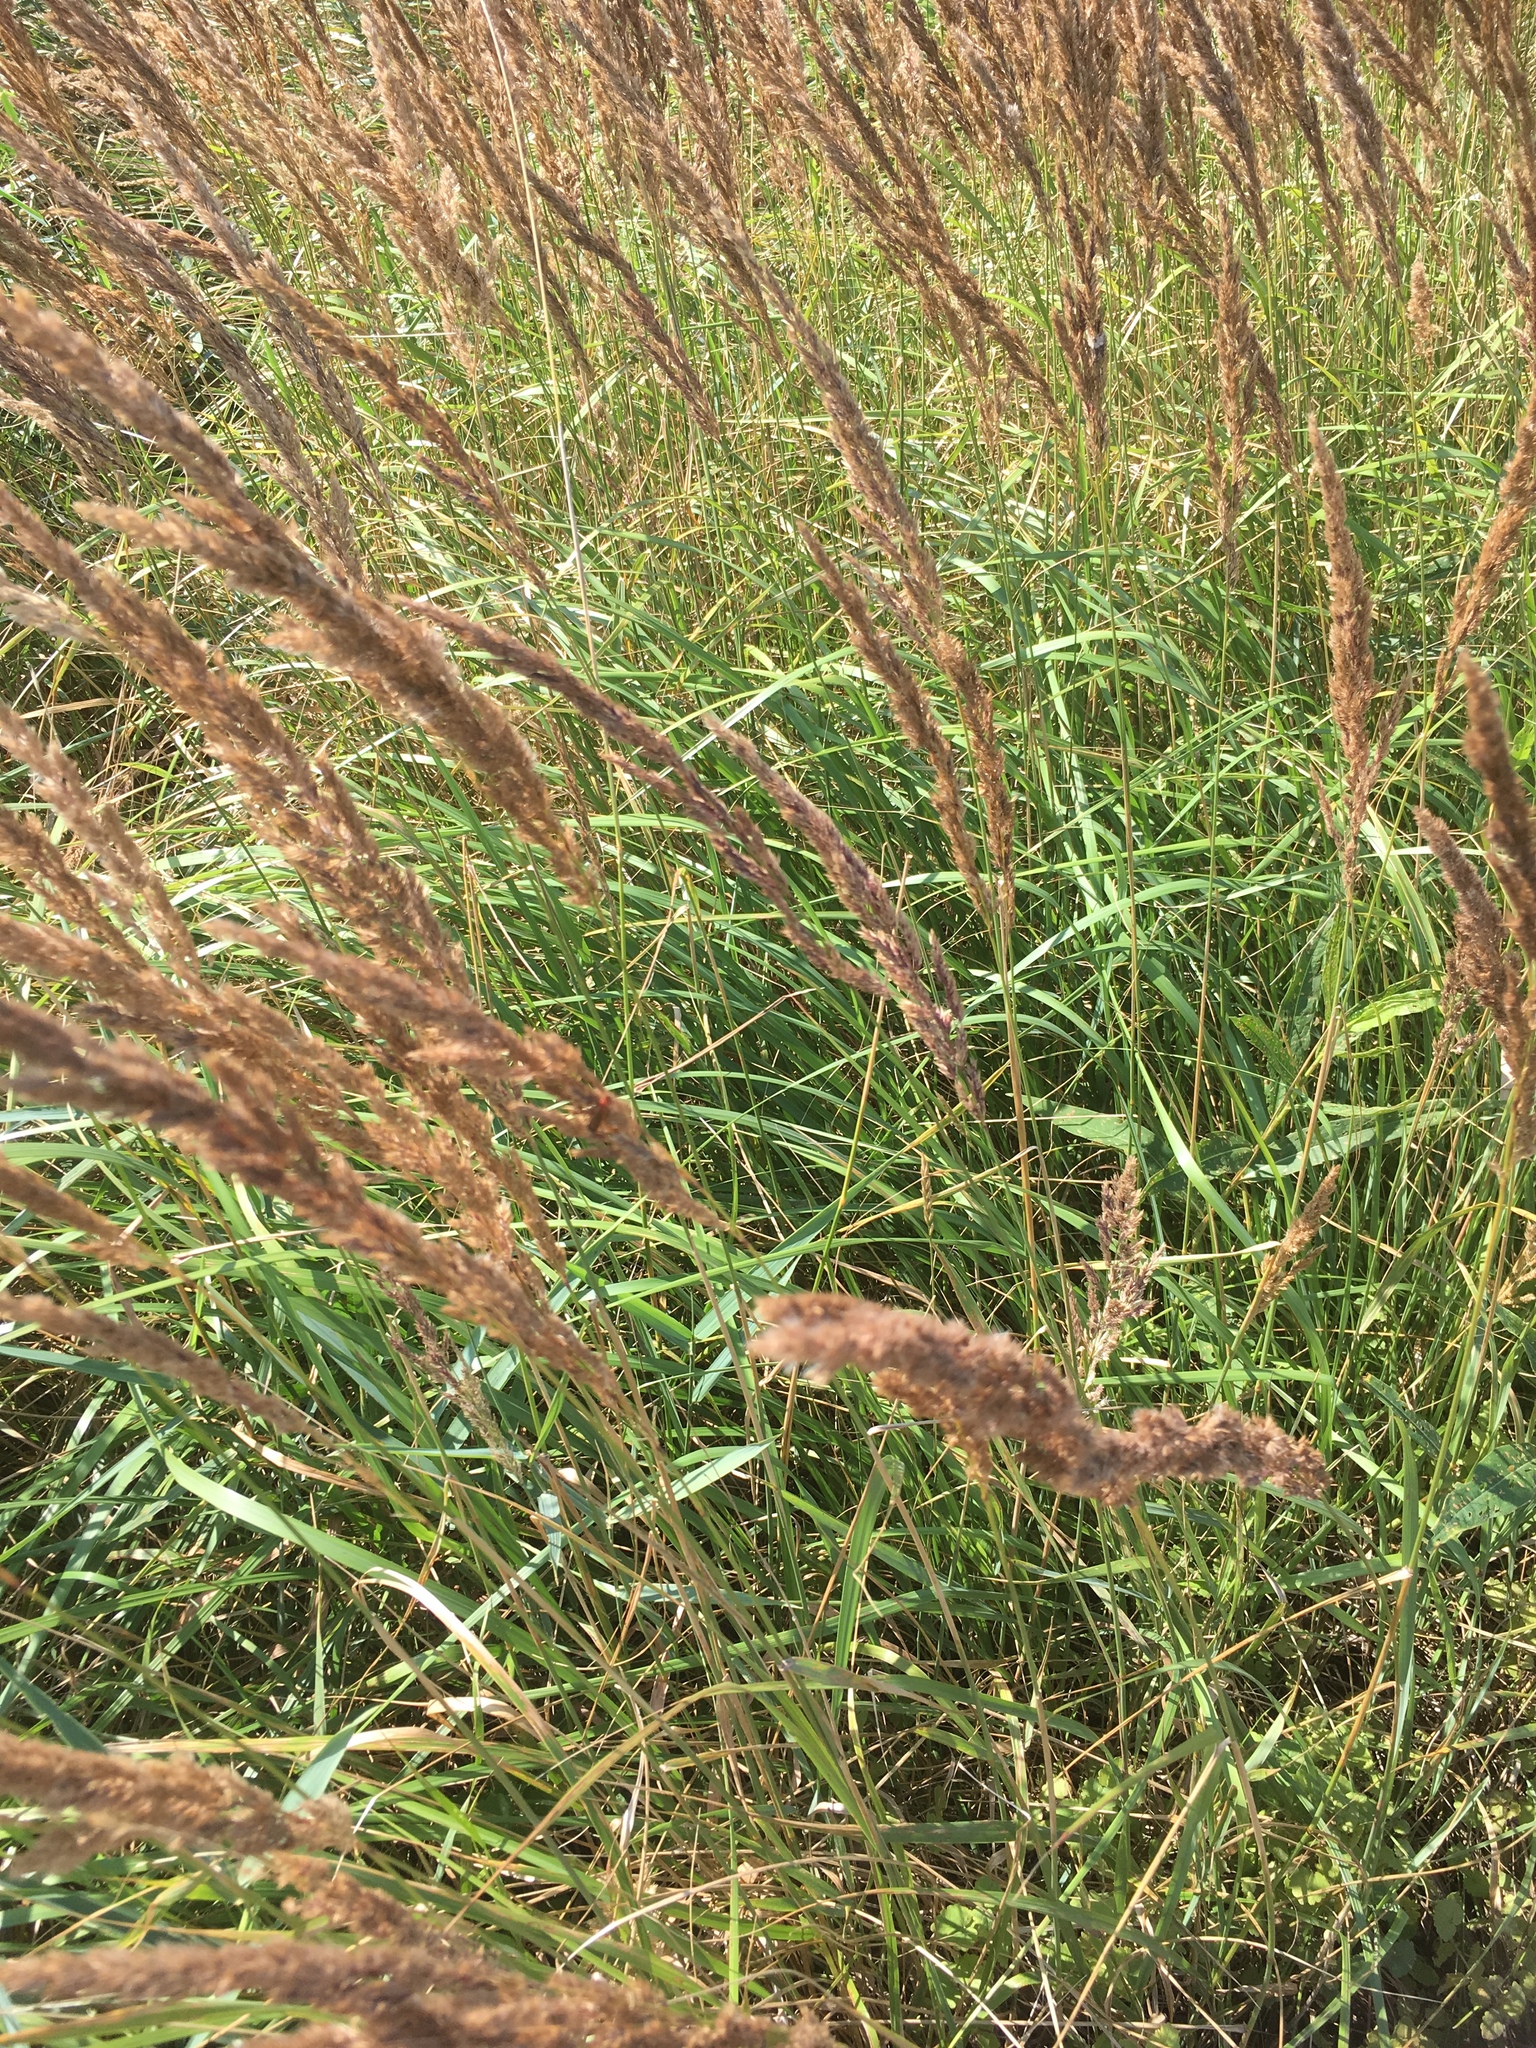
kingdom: Plantae
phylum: Tracheophyta
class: Liliopsida
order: Poales
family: Poaceae
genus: Calamagrostis
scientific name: Calamagrostis epigejos
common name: Wood small-reed
